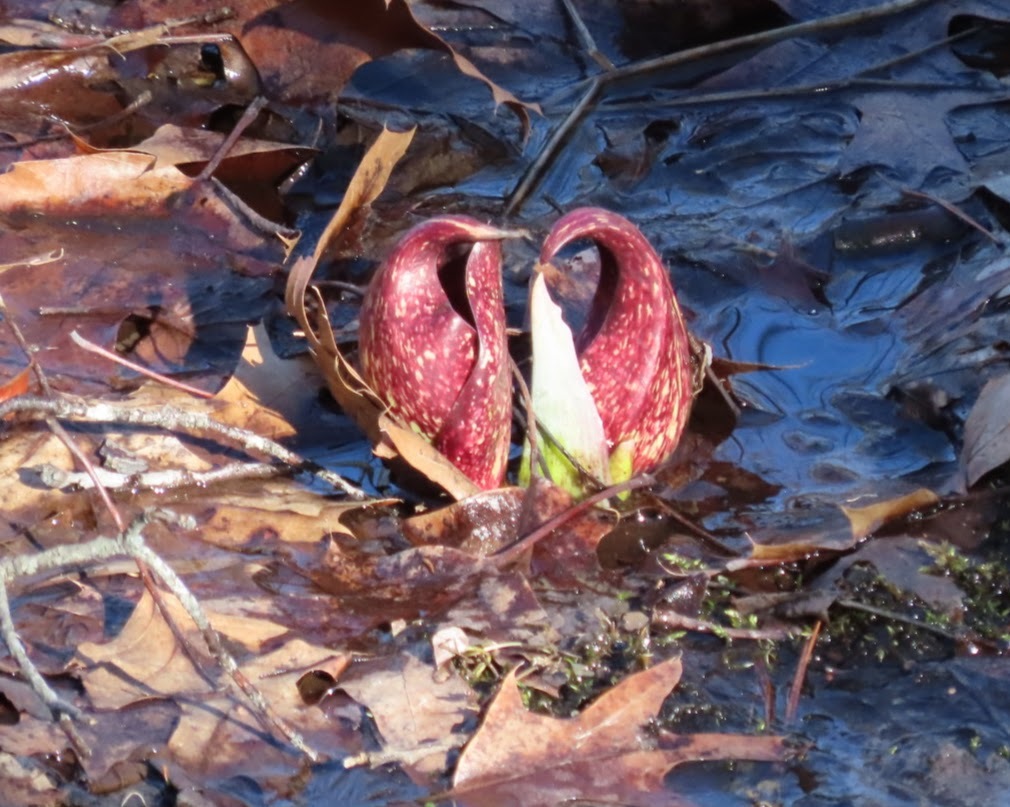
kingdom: Plantae
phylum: Tracheophyta
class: Liliopsida
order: Alismatales
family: Araceae
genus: Symplocarpus
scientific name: Symplocarpus foetidus
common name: Eastern skunk cabbage
